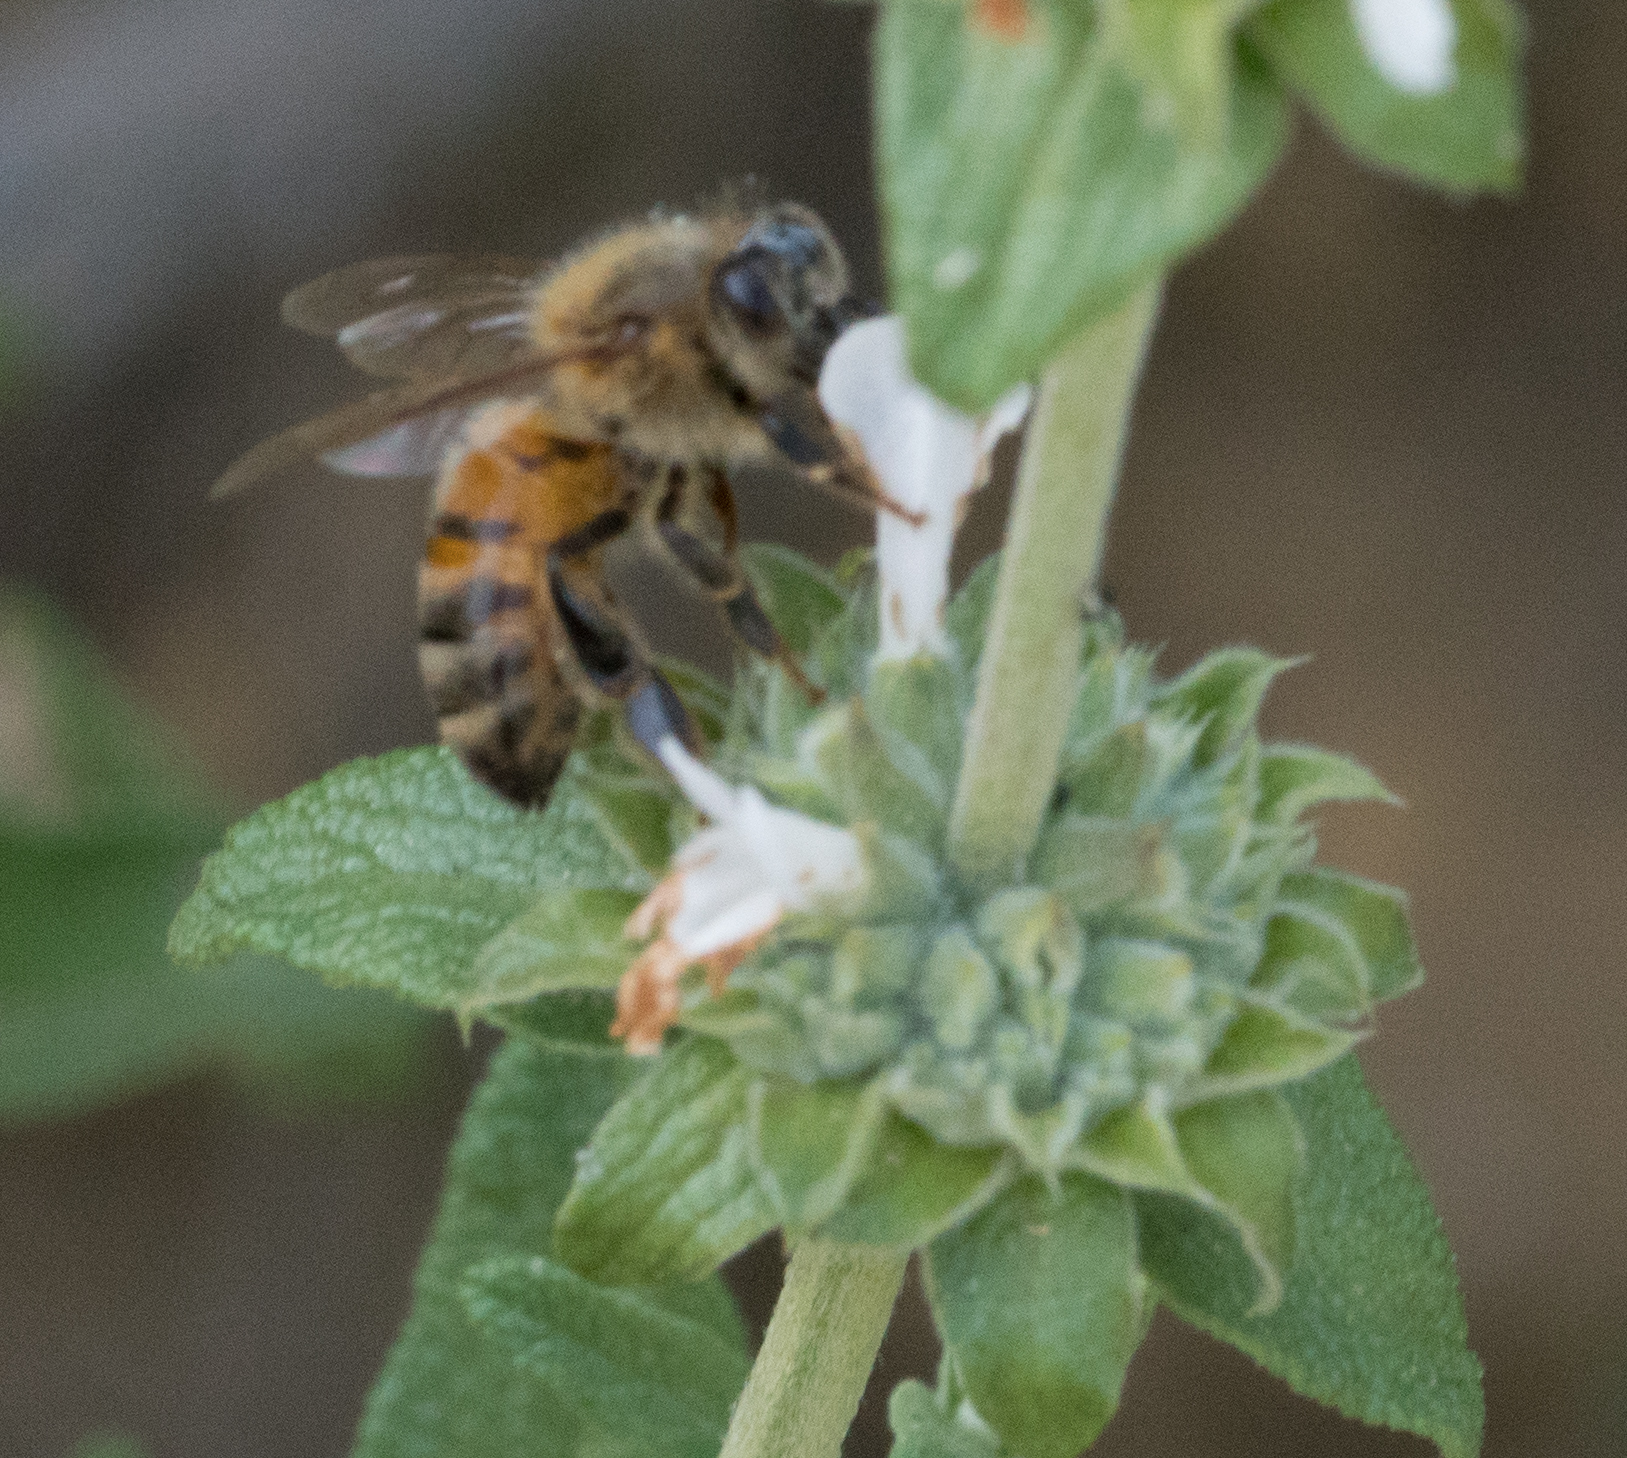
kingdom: Animalia
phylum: Arthropoda
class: Insecta
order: Hymenoptera
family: Apidae
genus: Apis
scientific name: Apis mellifera
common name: Honey bee
